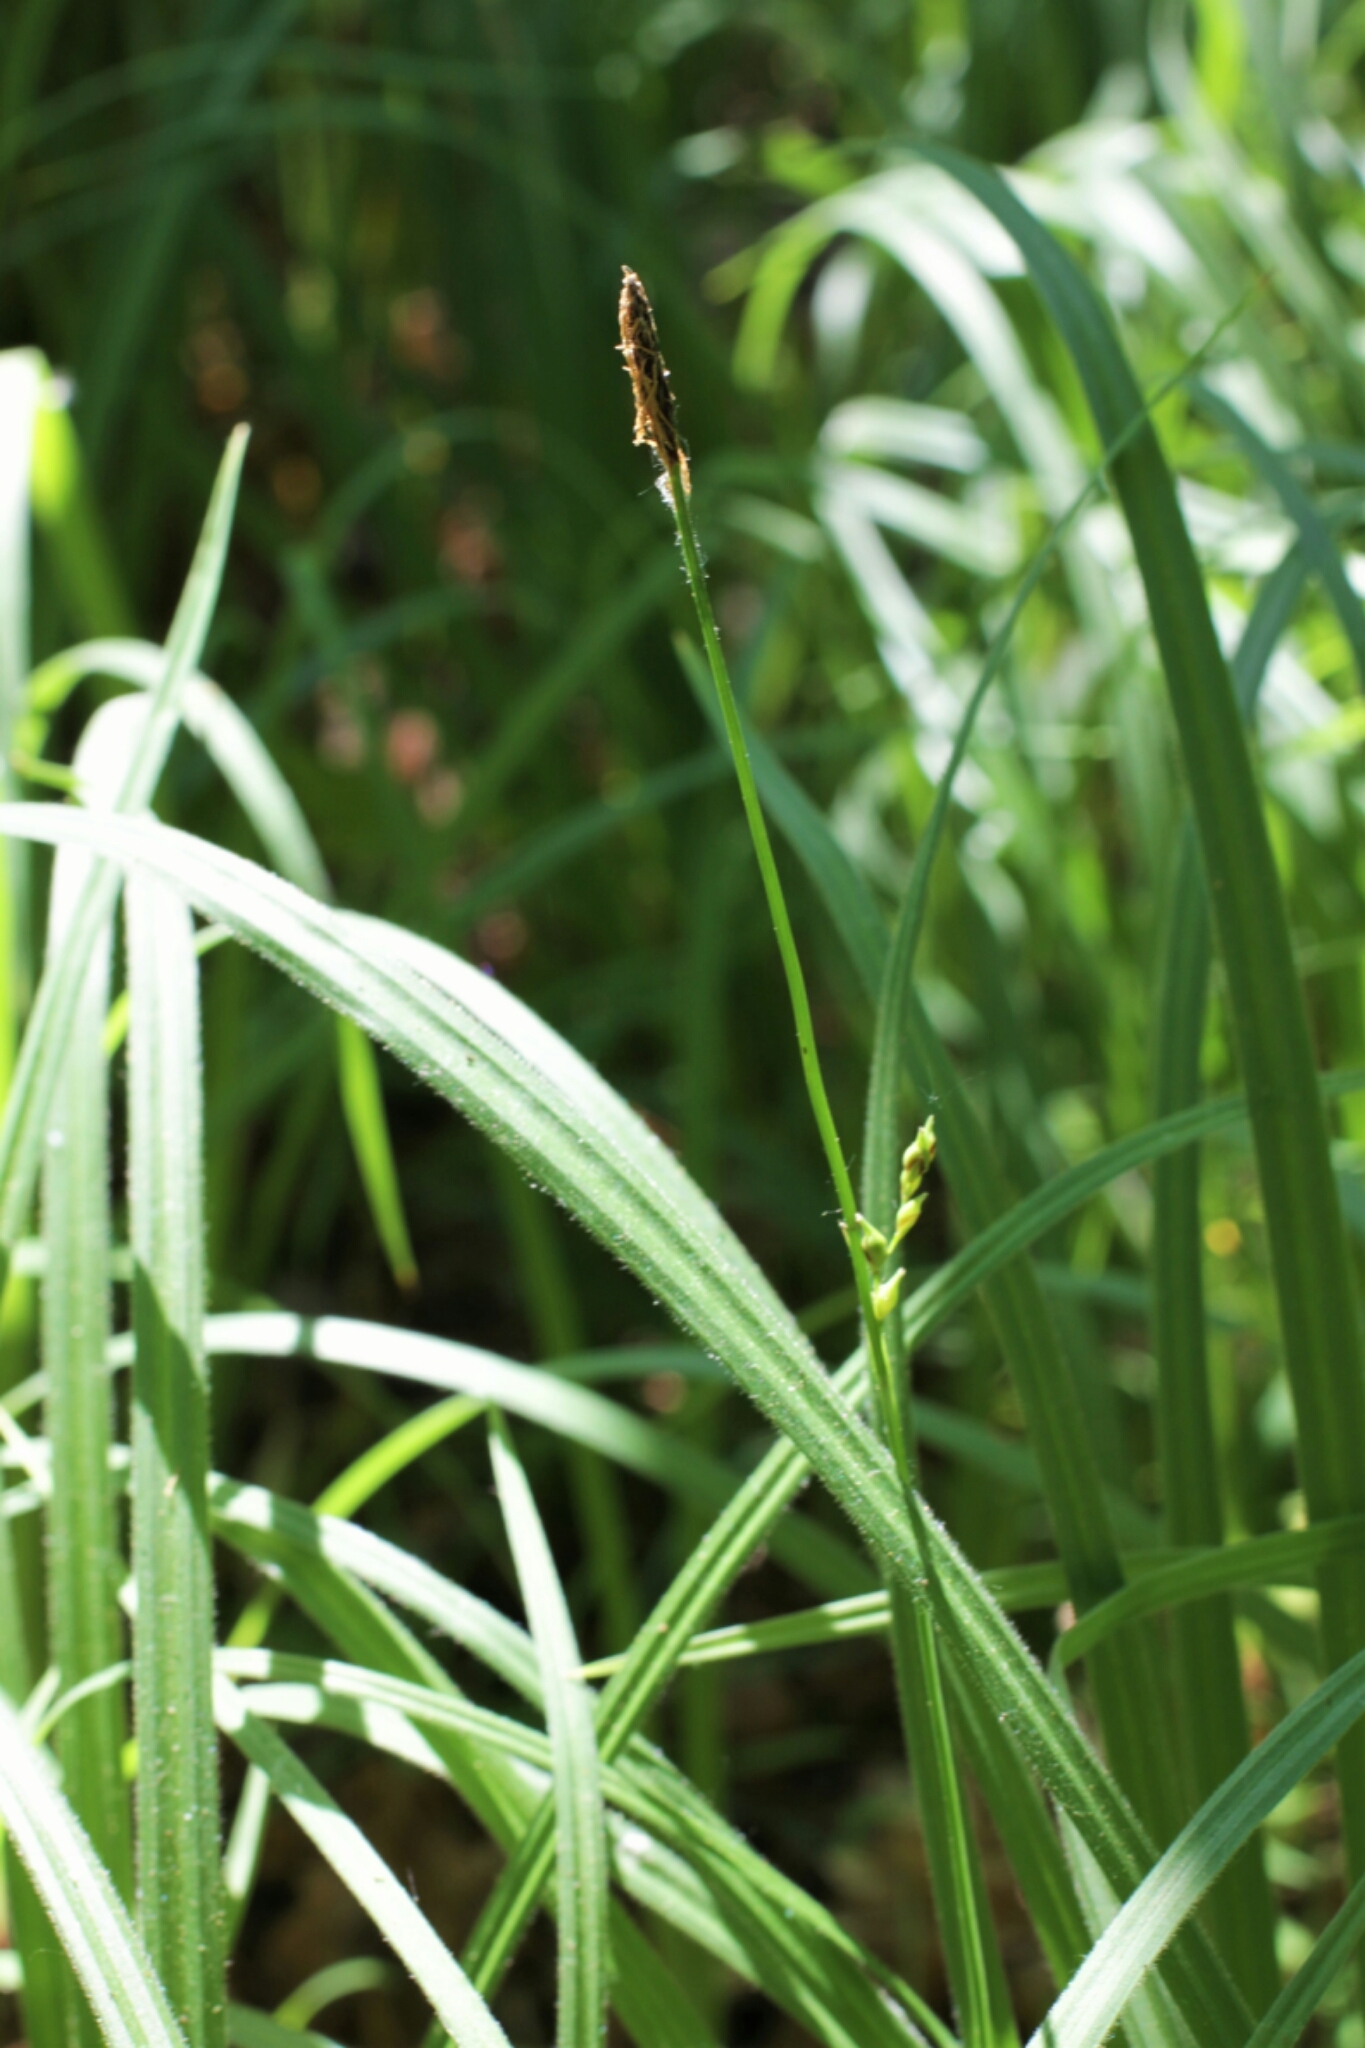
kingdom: Plantae
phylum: Tracheophyta
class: Liliopsida
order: Poales
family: Cyperaceae
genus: Carex
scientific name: Carex pilosa
